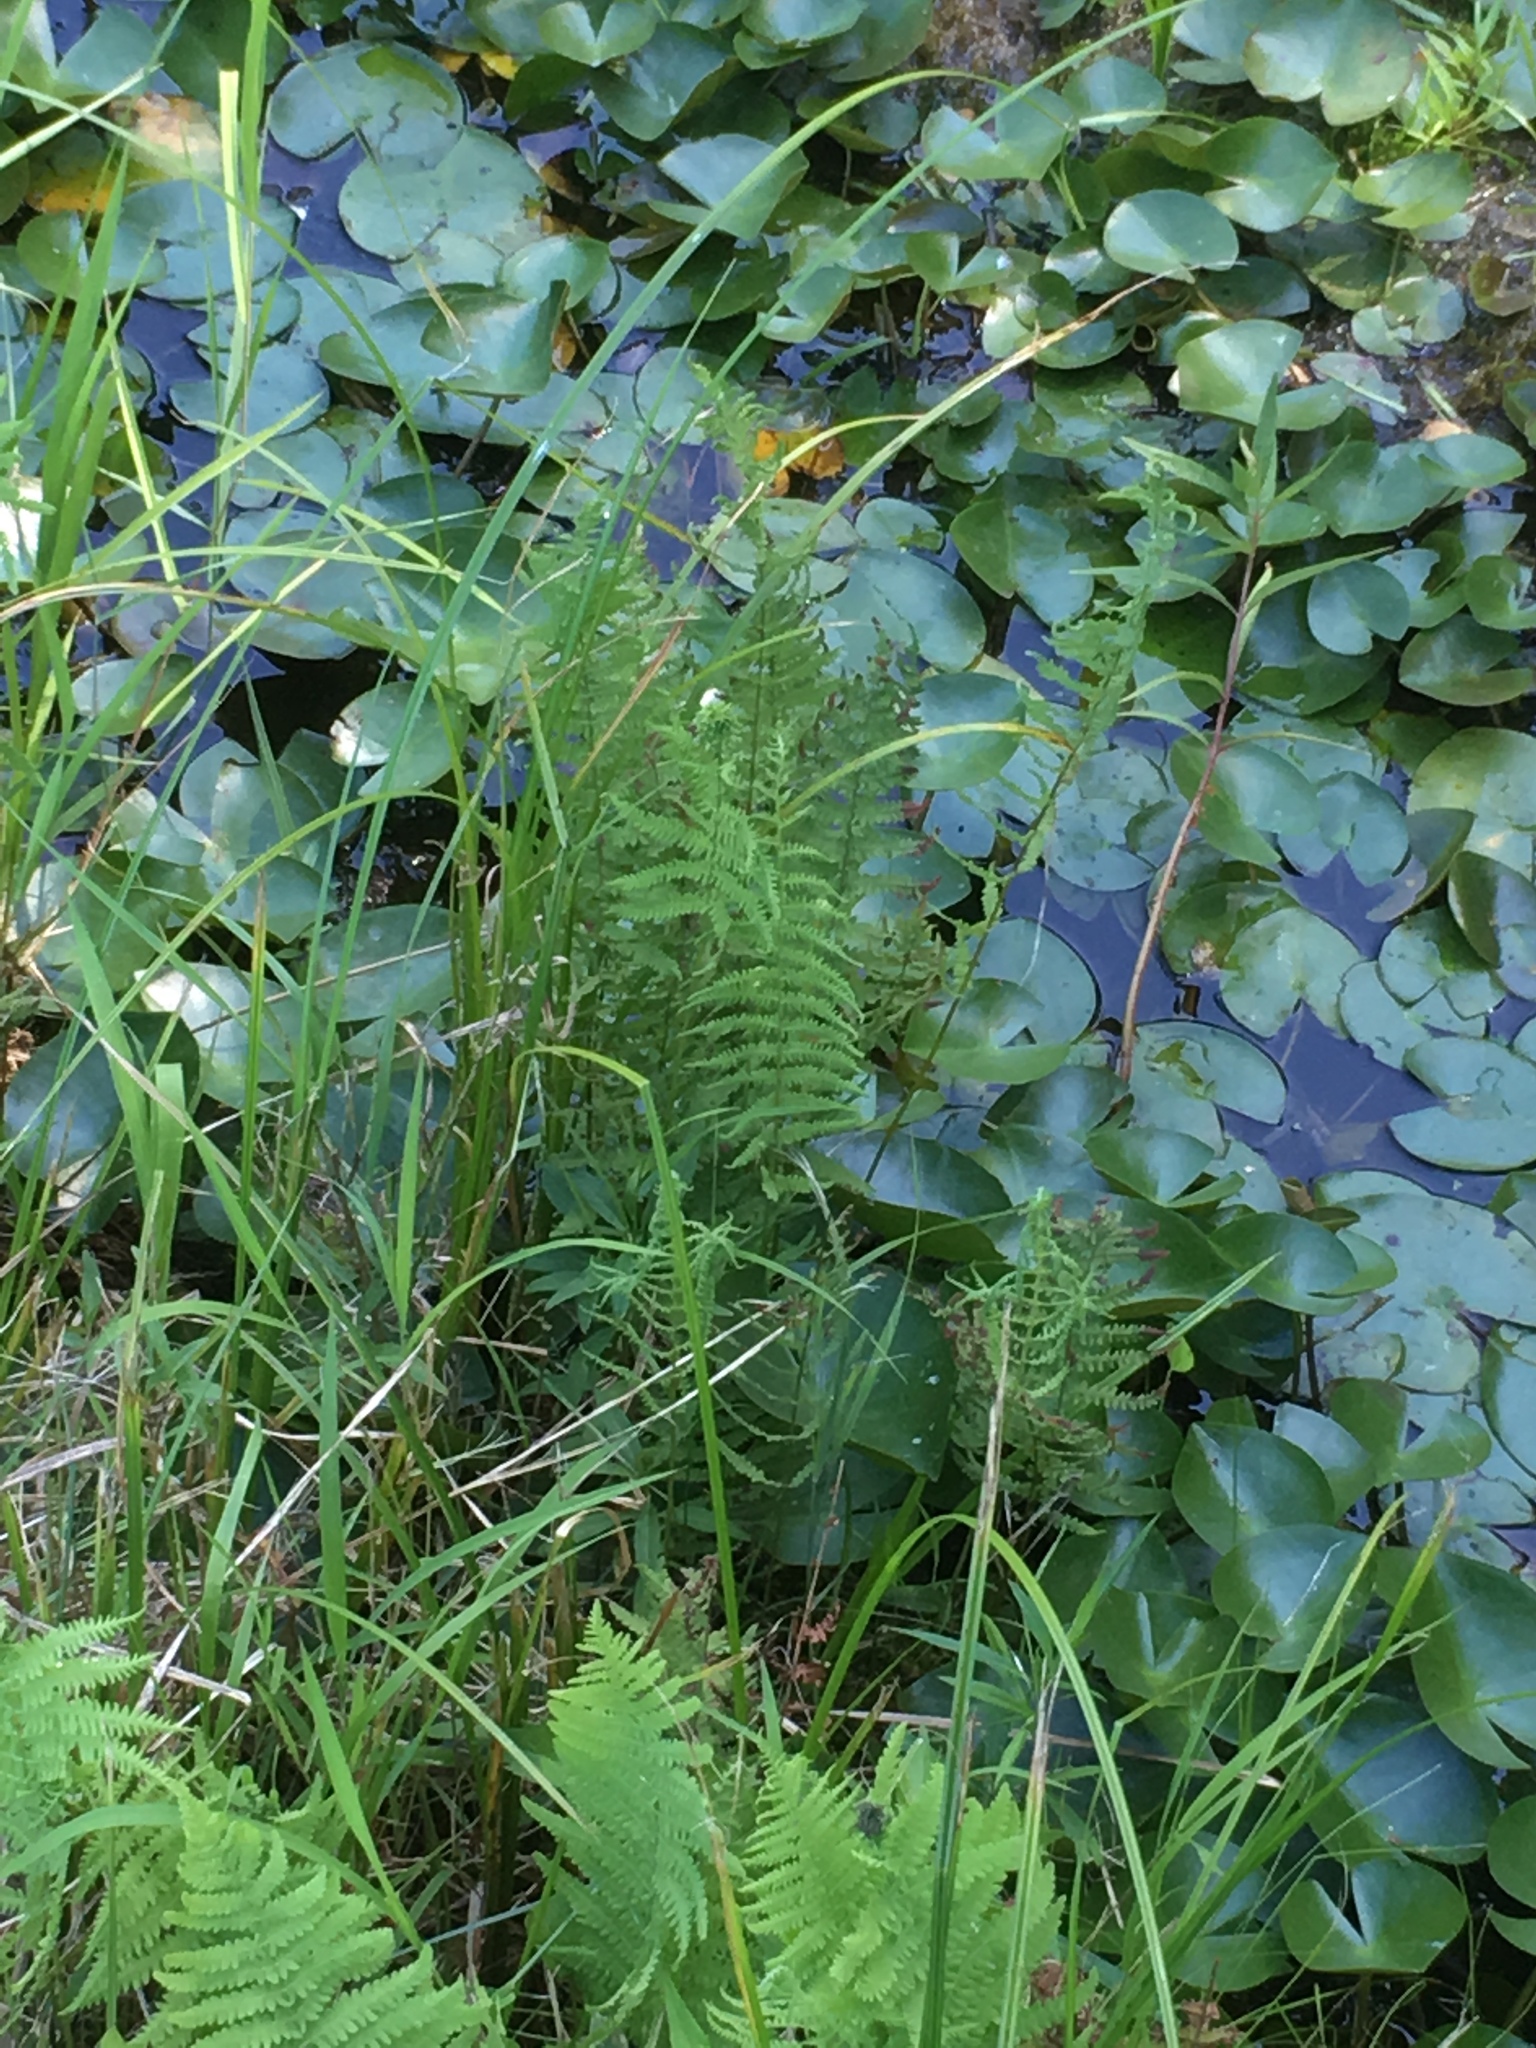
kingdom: Plantae
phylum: Tracheophyta
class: Polypodiopsida
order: Polypodiales
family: Thelypteridaceae
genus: Thelypteris
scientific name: Thelypteris palustris
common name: Marsh fern
